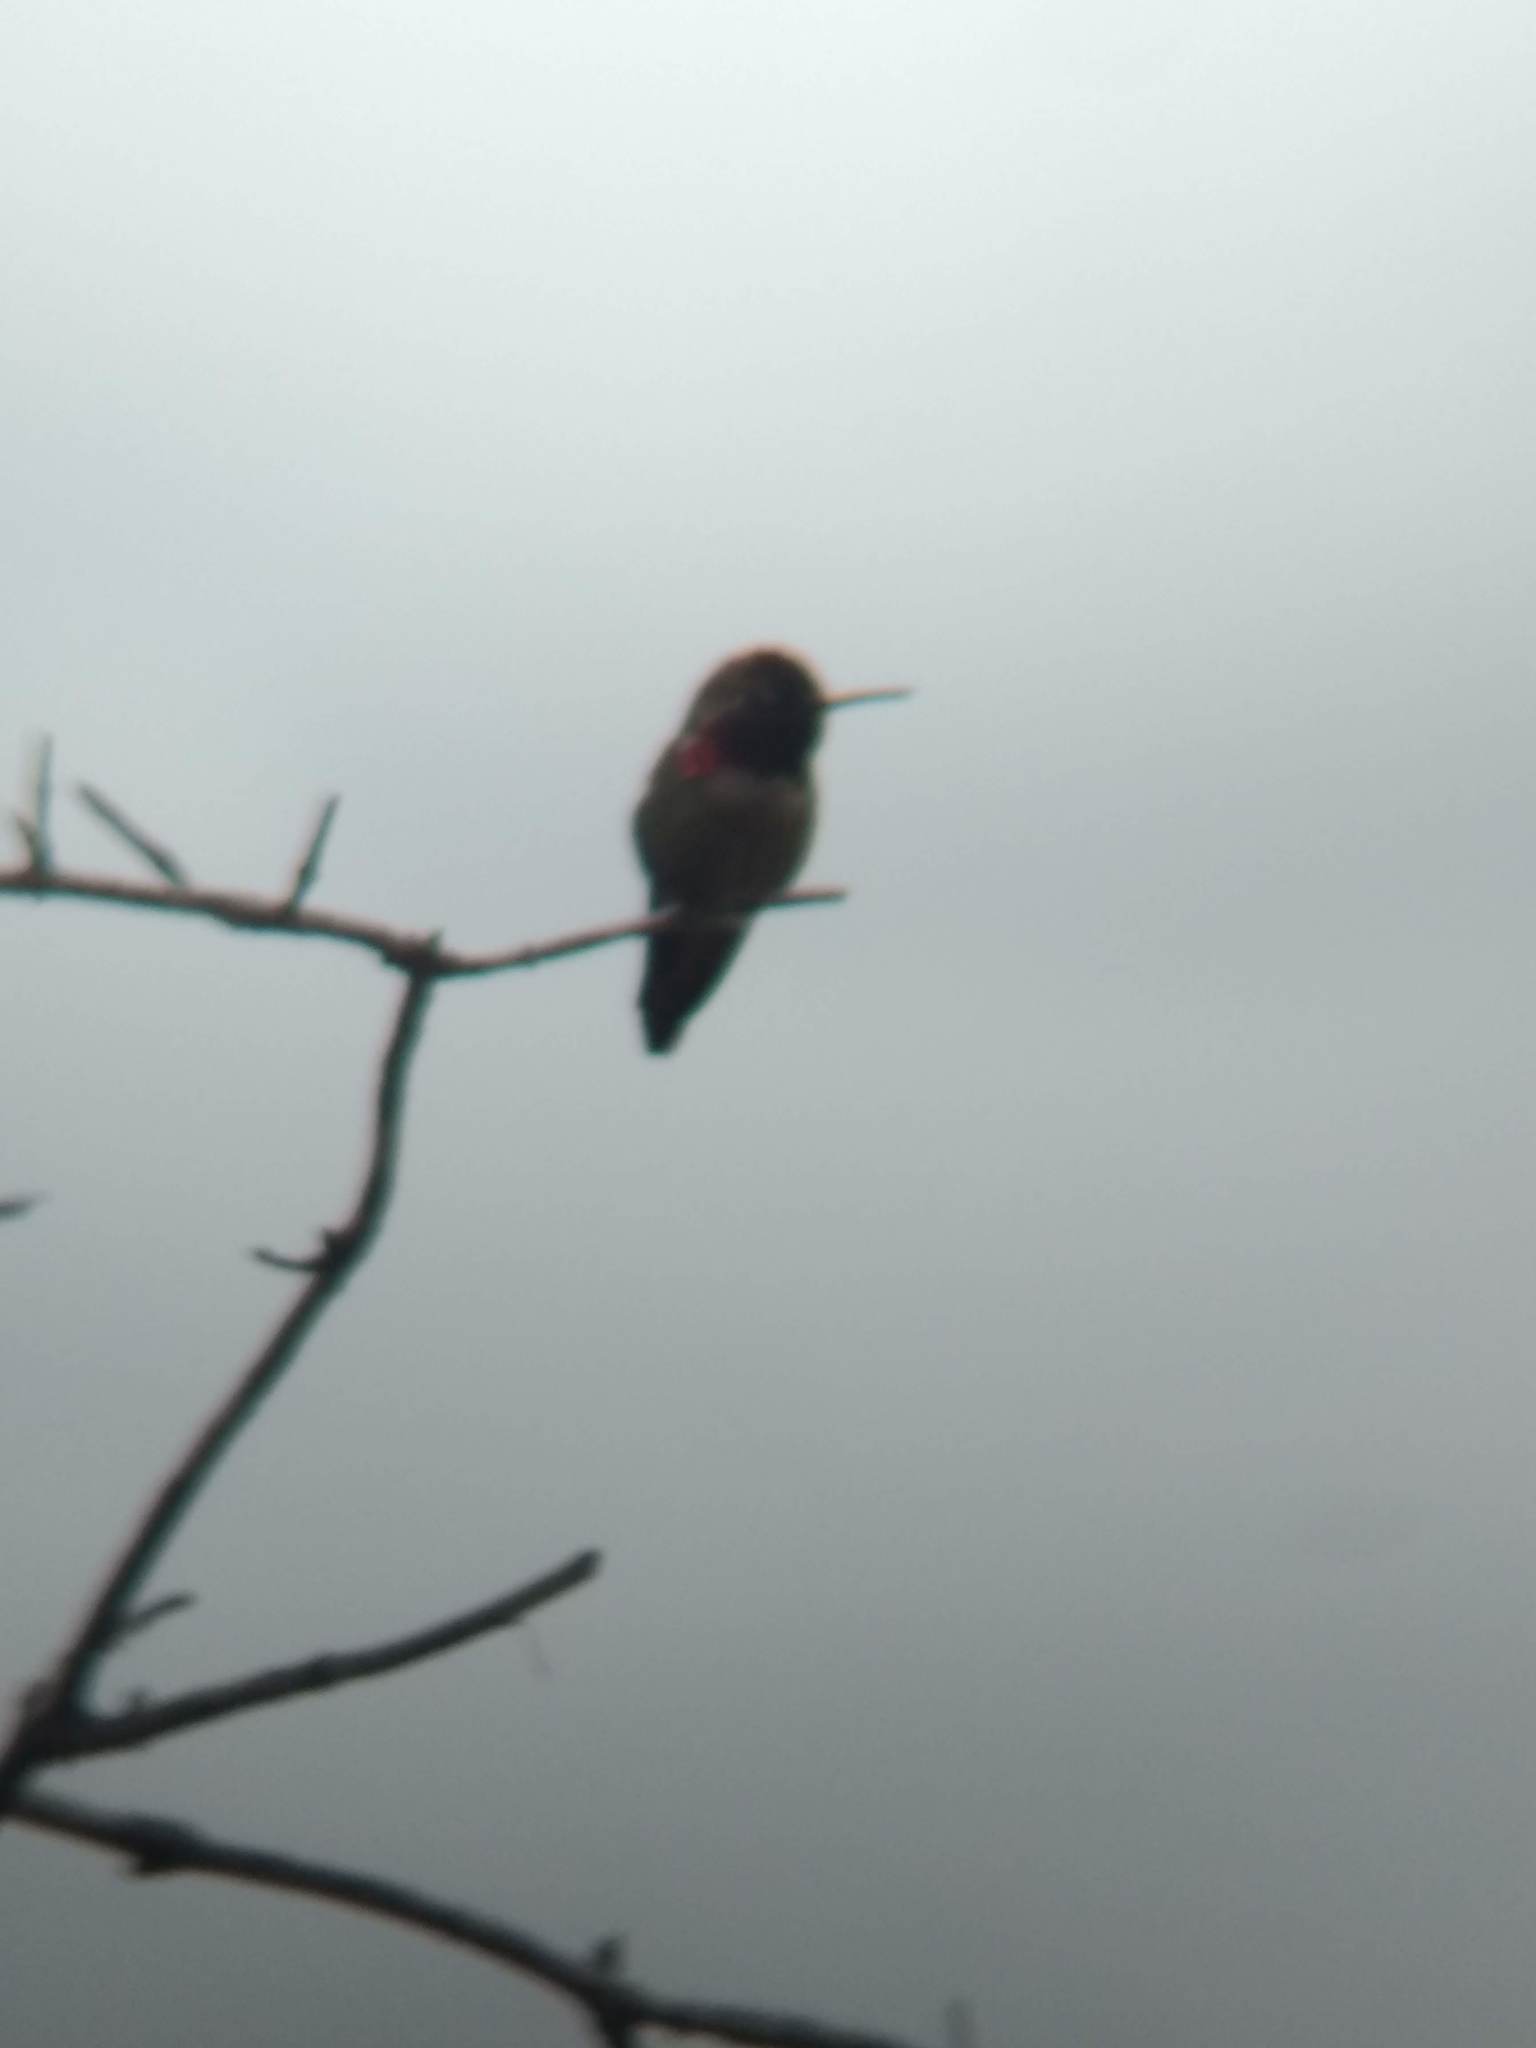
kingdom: Animalia
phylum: Chordata
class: Aves
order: Apodiformes
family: Trochilidae
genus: Calypte
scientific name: Calypte anna
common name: Anna's hummingbird
